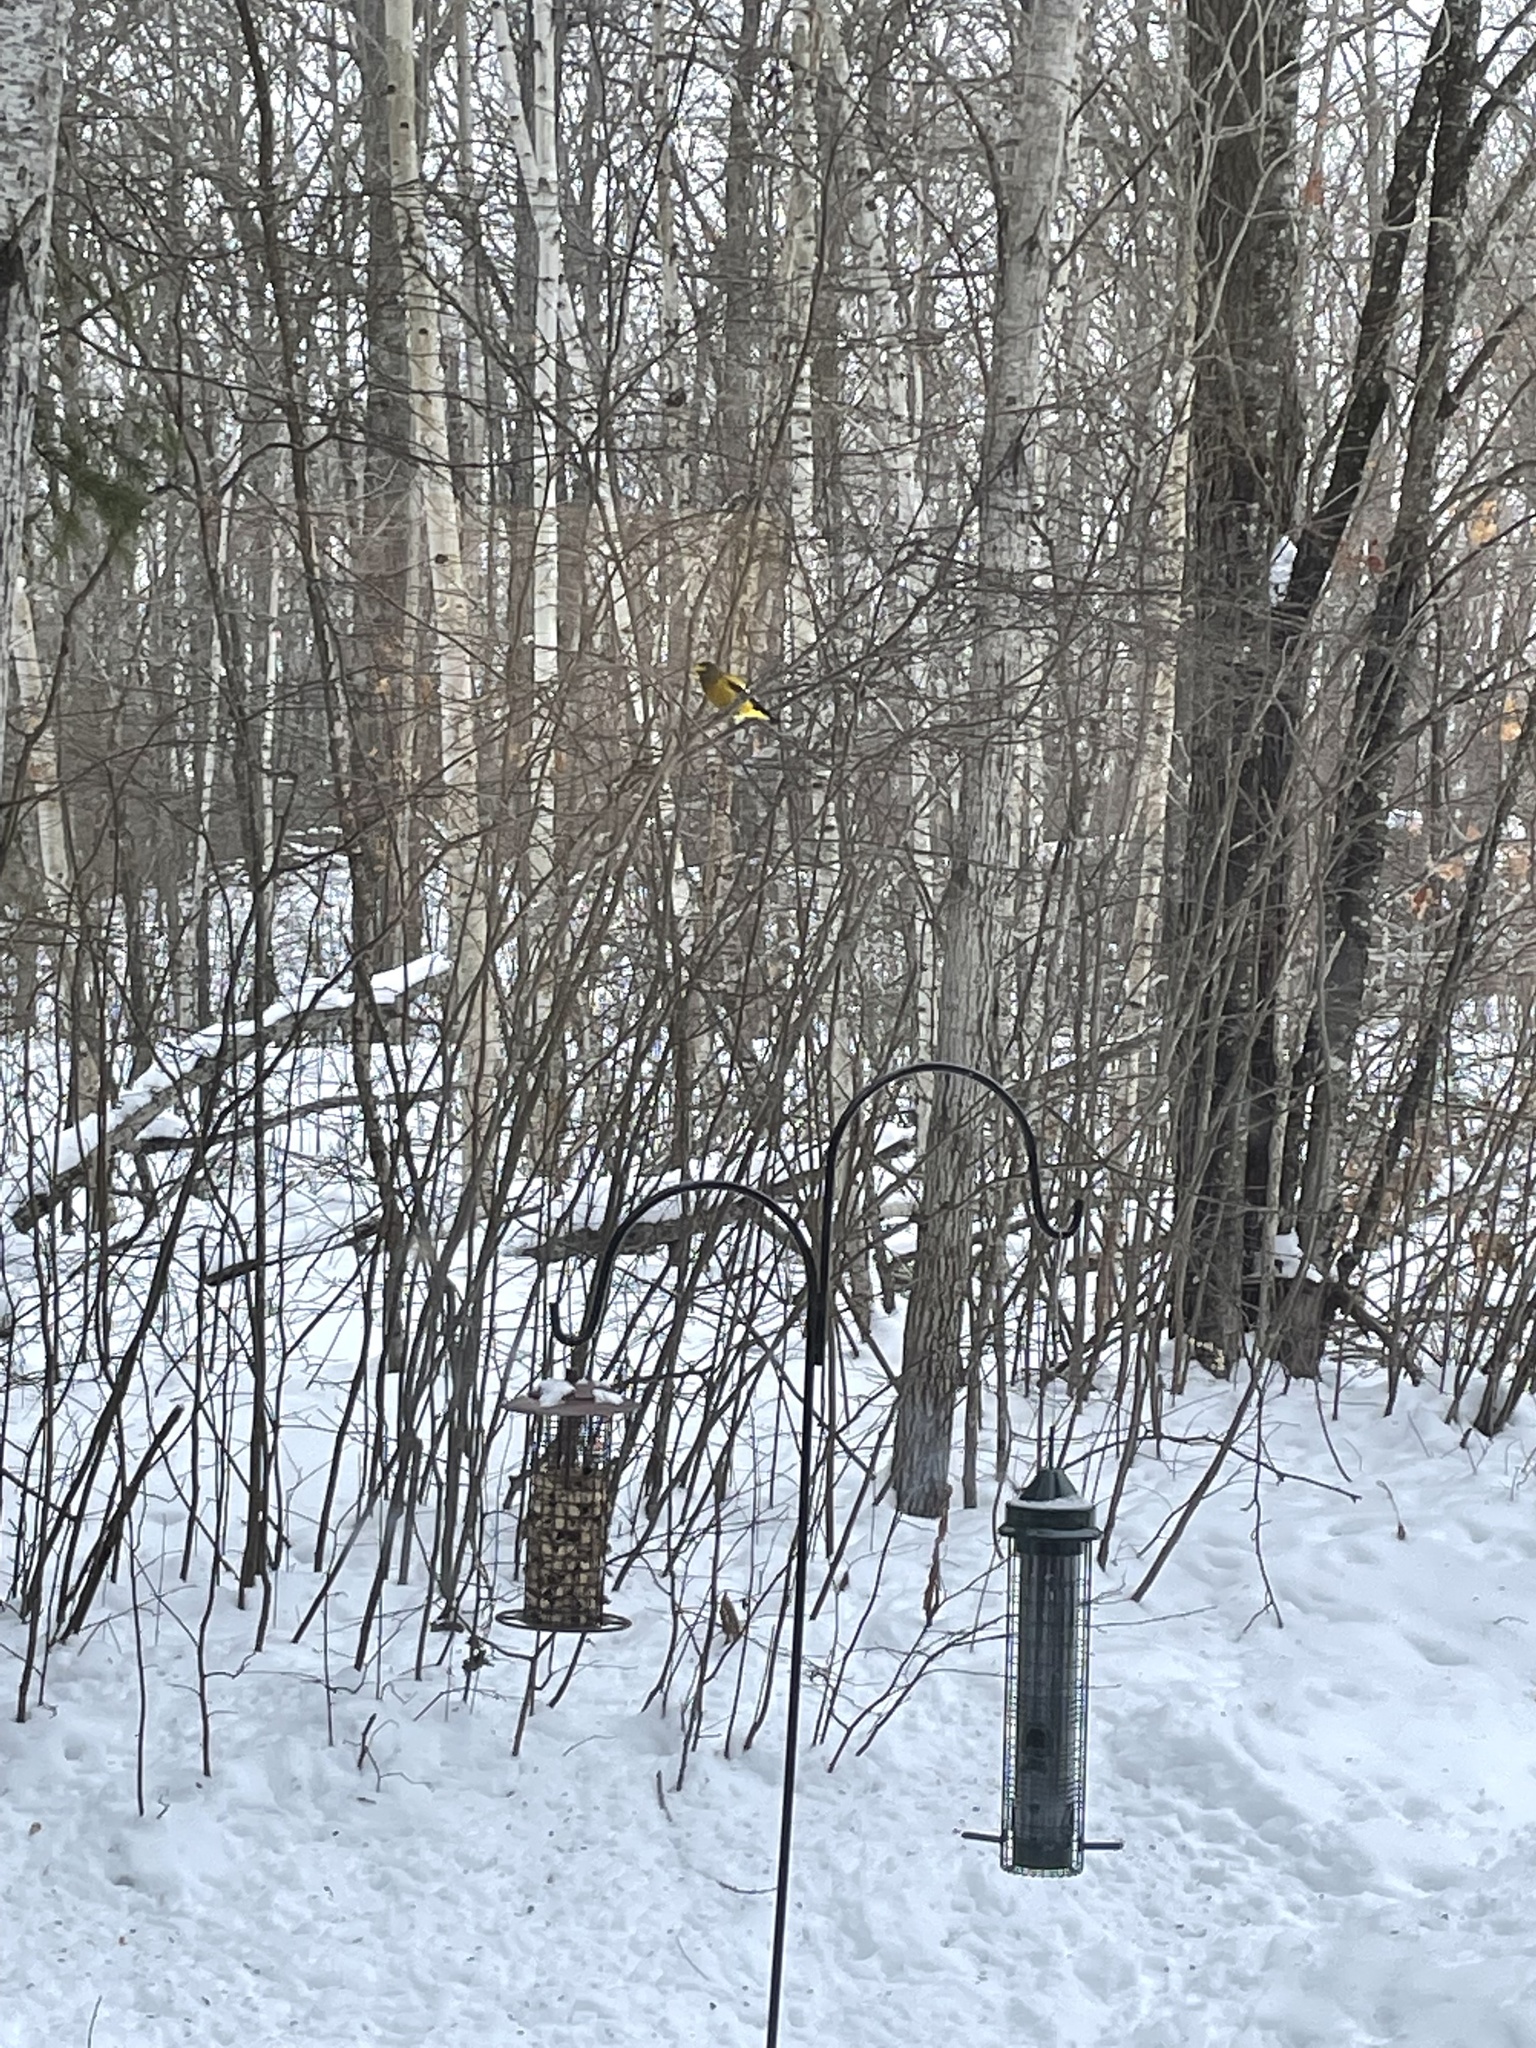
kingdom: Animalia
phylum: Chordata
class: Aves
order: Passeriformes
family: Fringillidae
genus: Hesperiphona
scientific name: Hesperiphona vespertina
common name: Evening grosbeak
